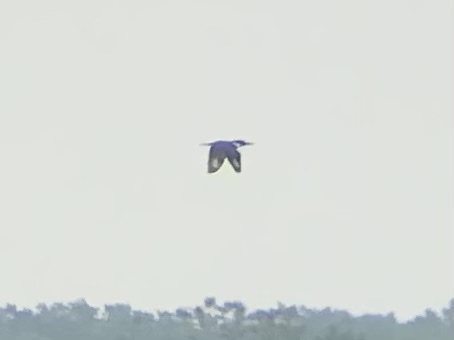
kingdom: Animalia
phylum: Chordata
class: Aves
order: Coraciiformes
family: Alcedinidae
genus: Megaceryle
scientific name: Megaceryle alcyon
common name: Belted kingfisher
